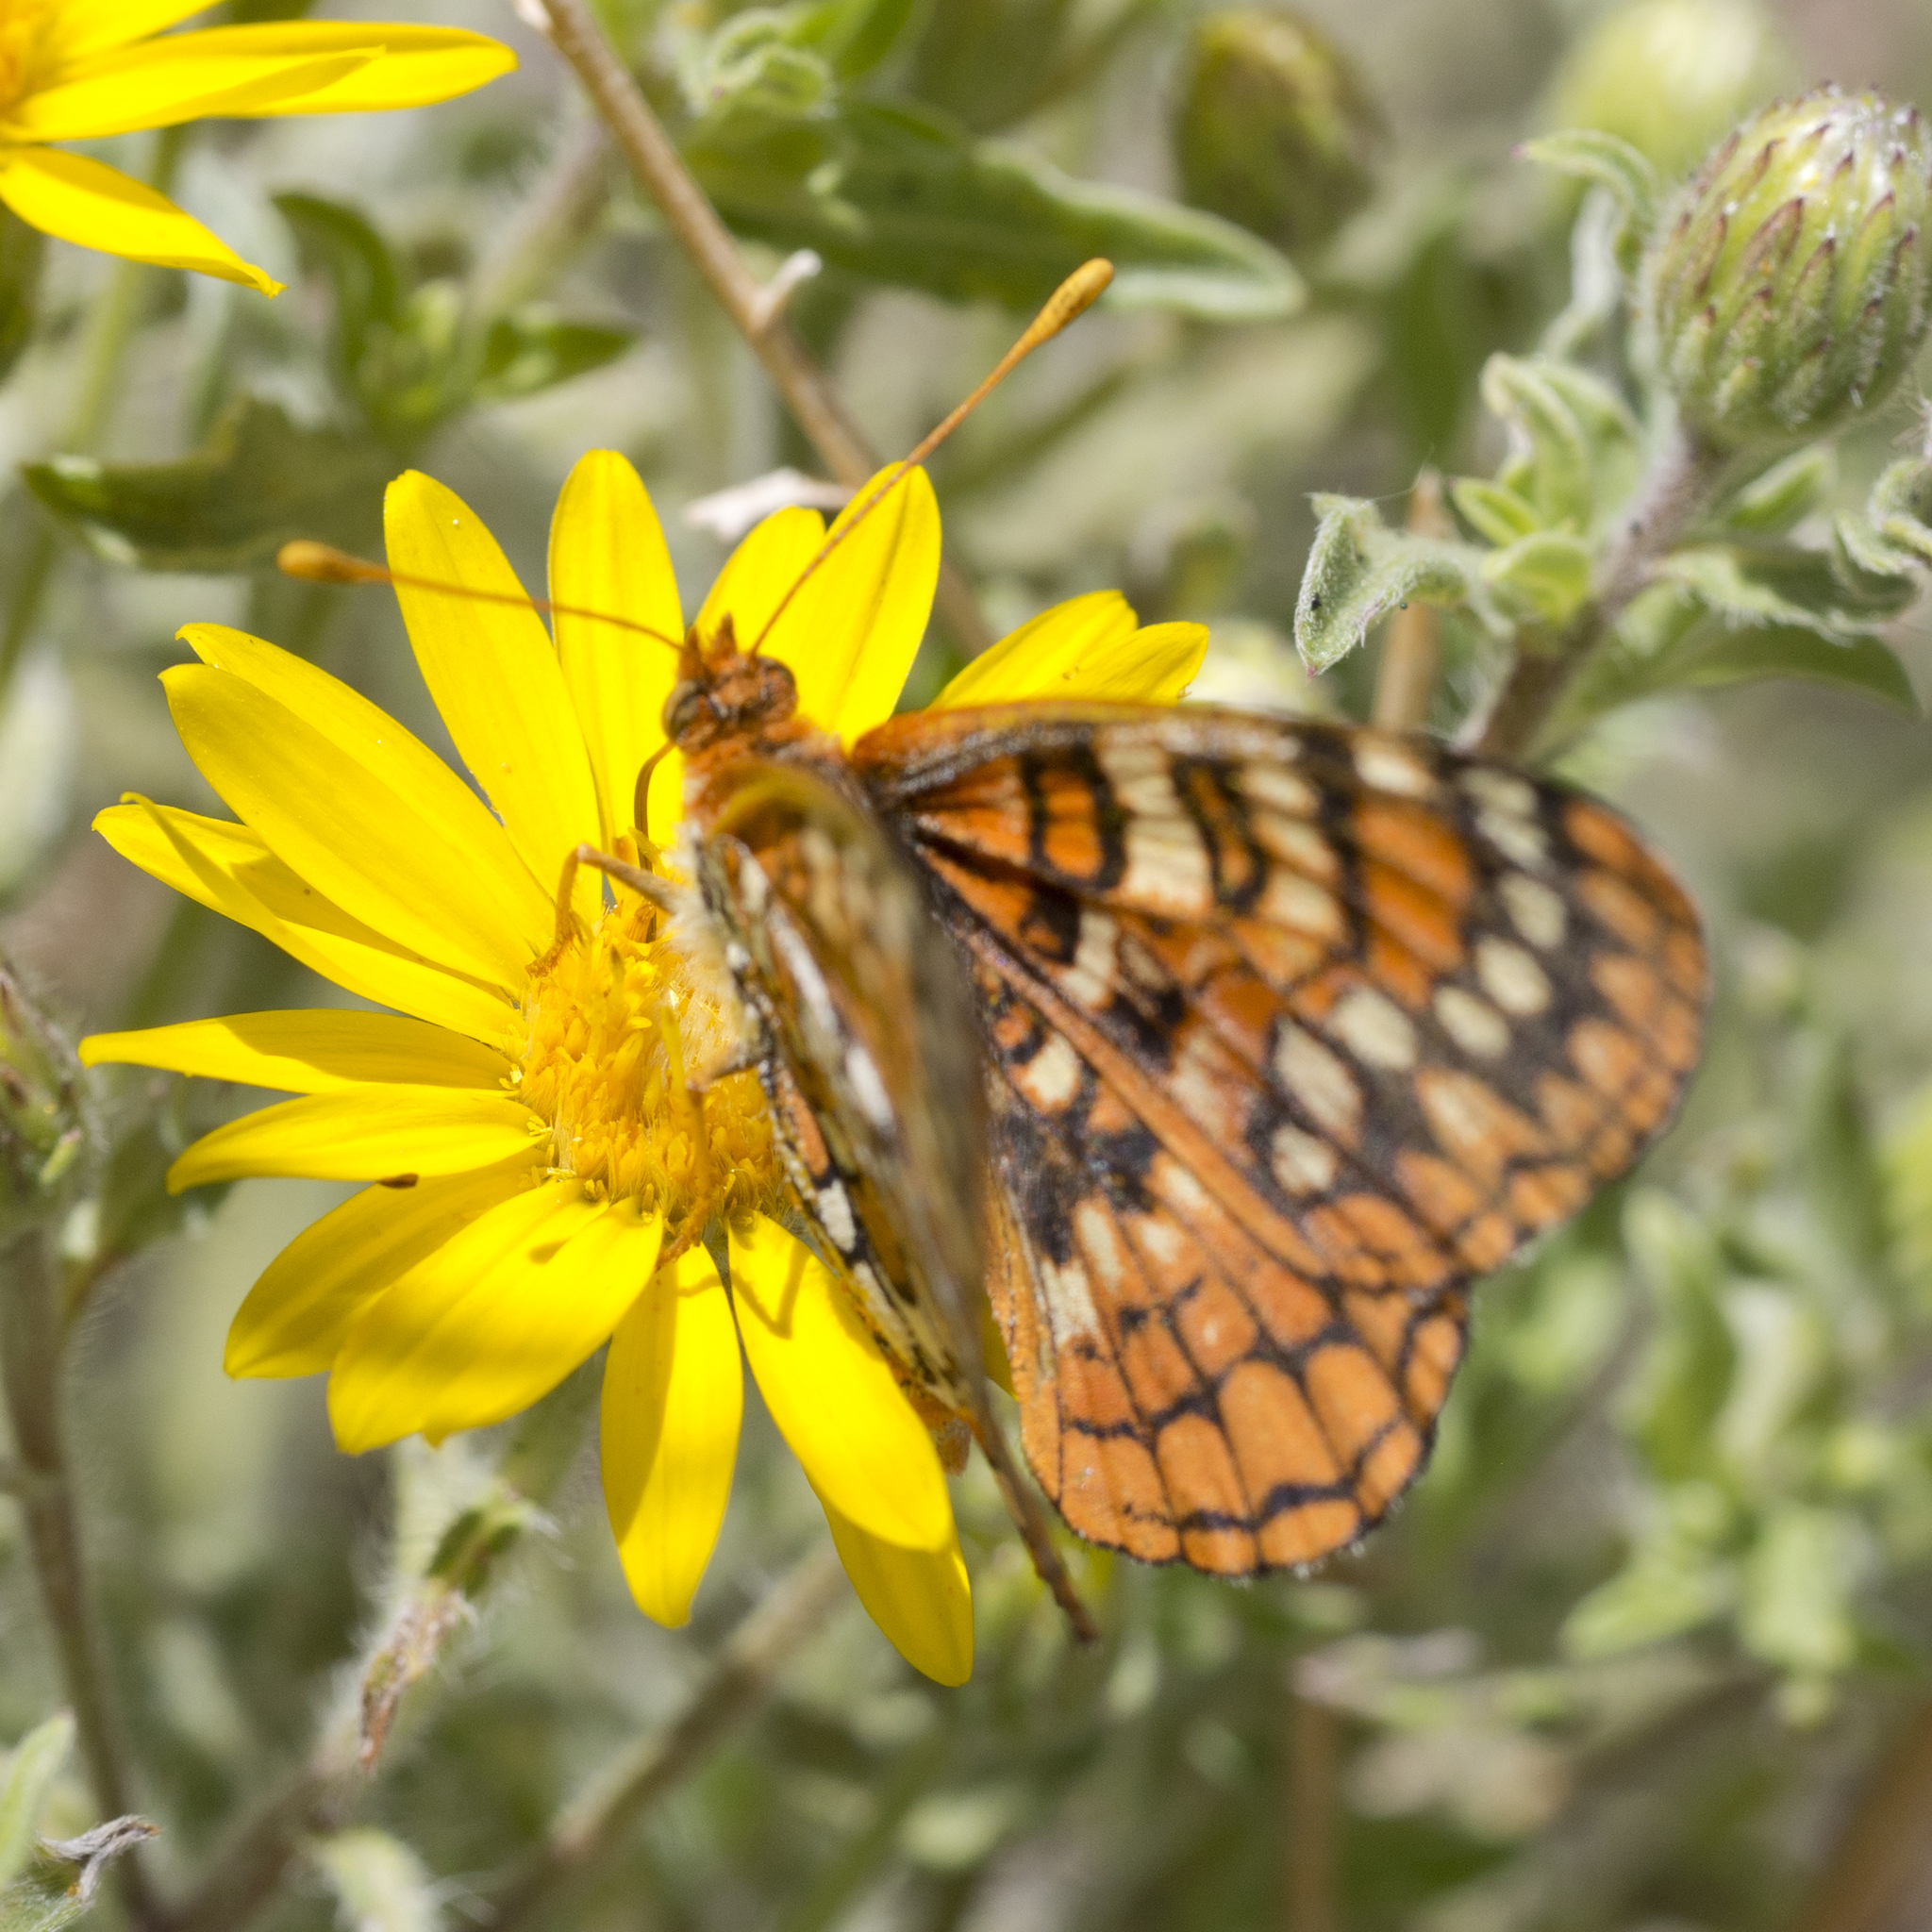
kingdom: Animalia
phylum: Arthropoda
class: Insecta
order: Lepidoptera
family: Nymphalidae
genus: Occidryas
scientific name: Occidryas anicia
